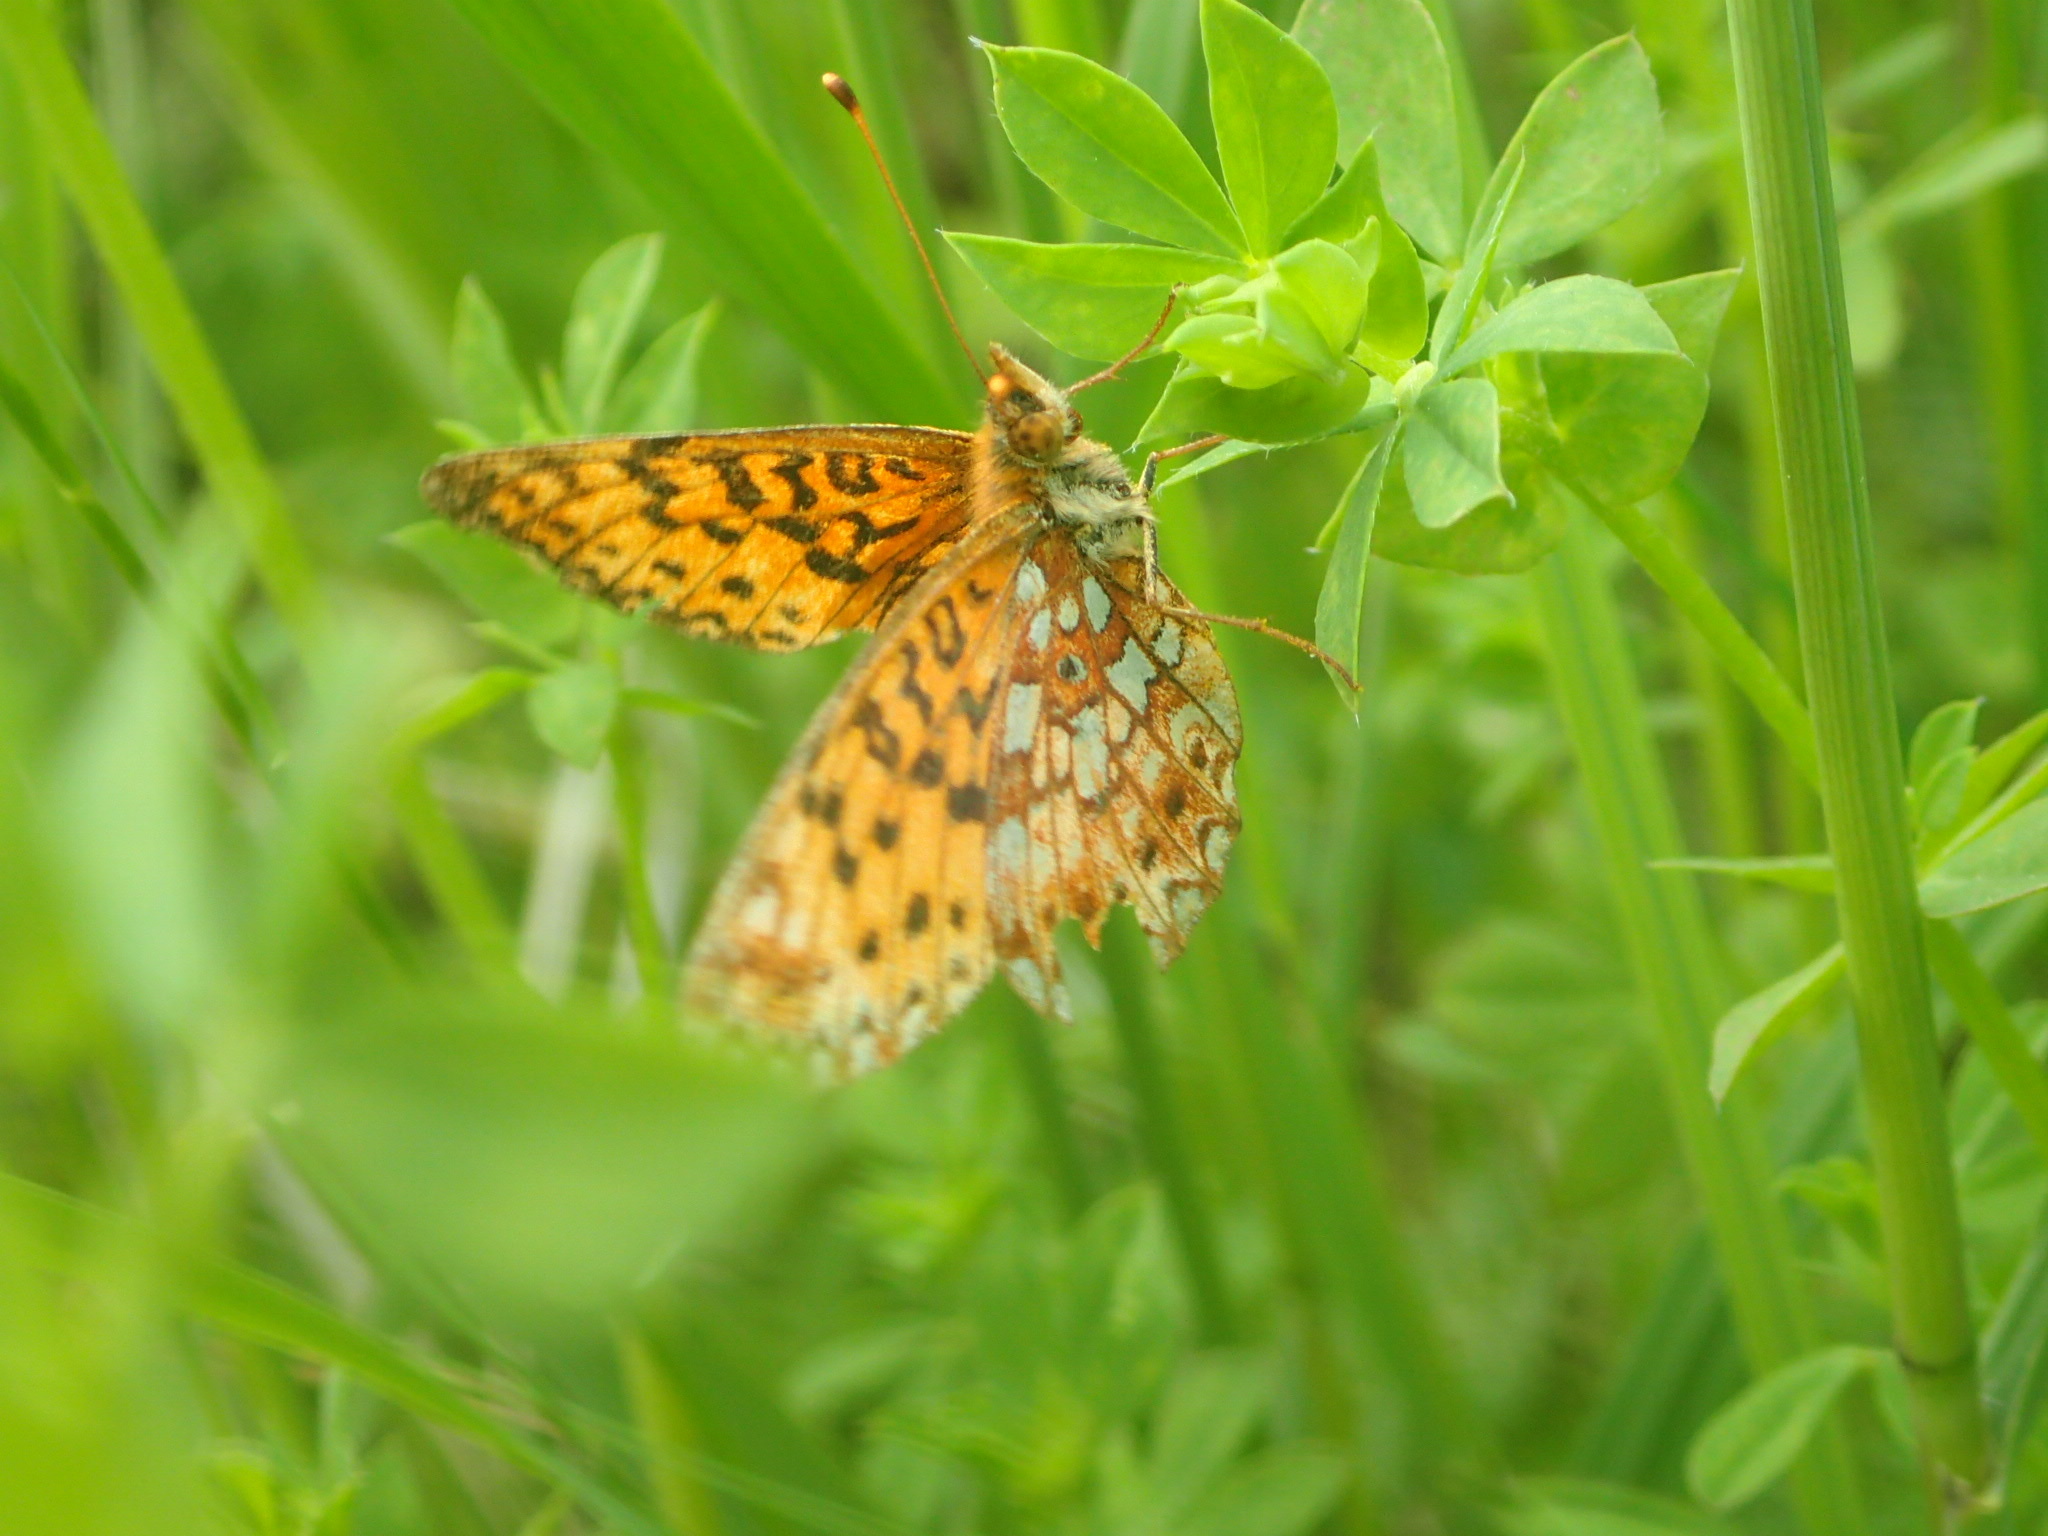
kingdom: Animalia
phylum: Arthropoda
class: Insecta
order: Lepidoptera
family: Nymphalidae
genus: Boloria
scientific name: Boloria
